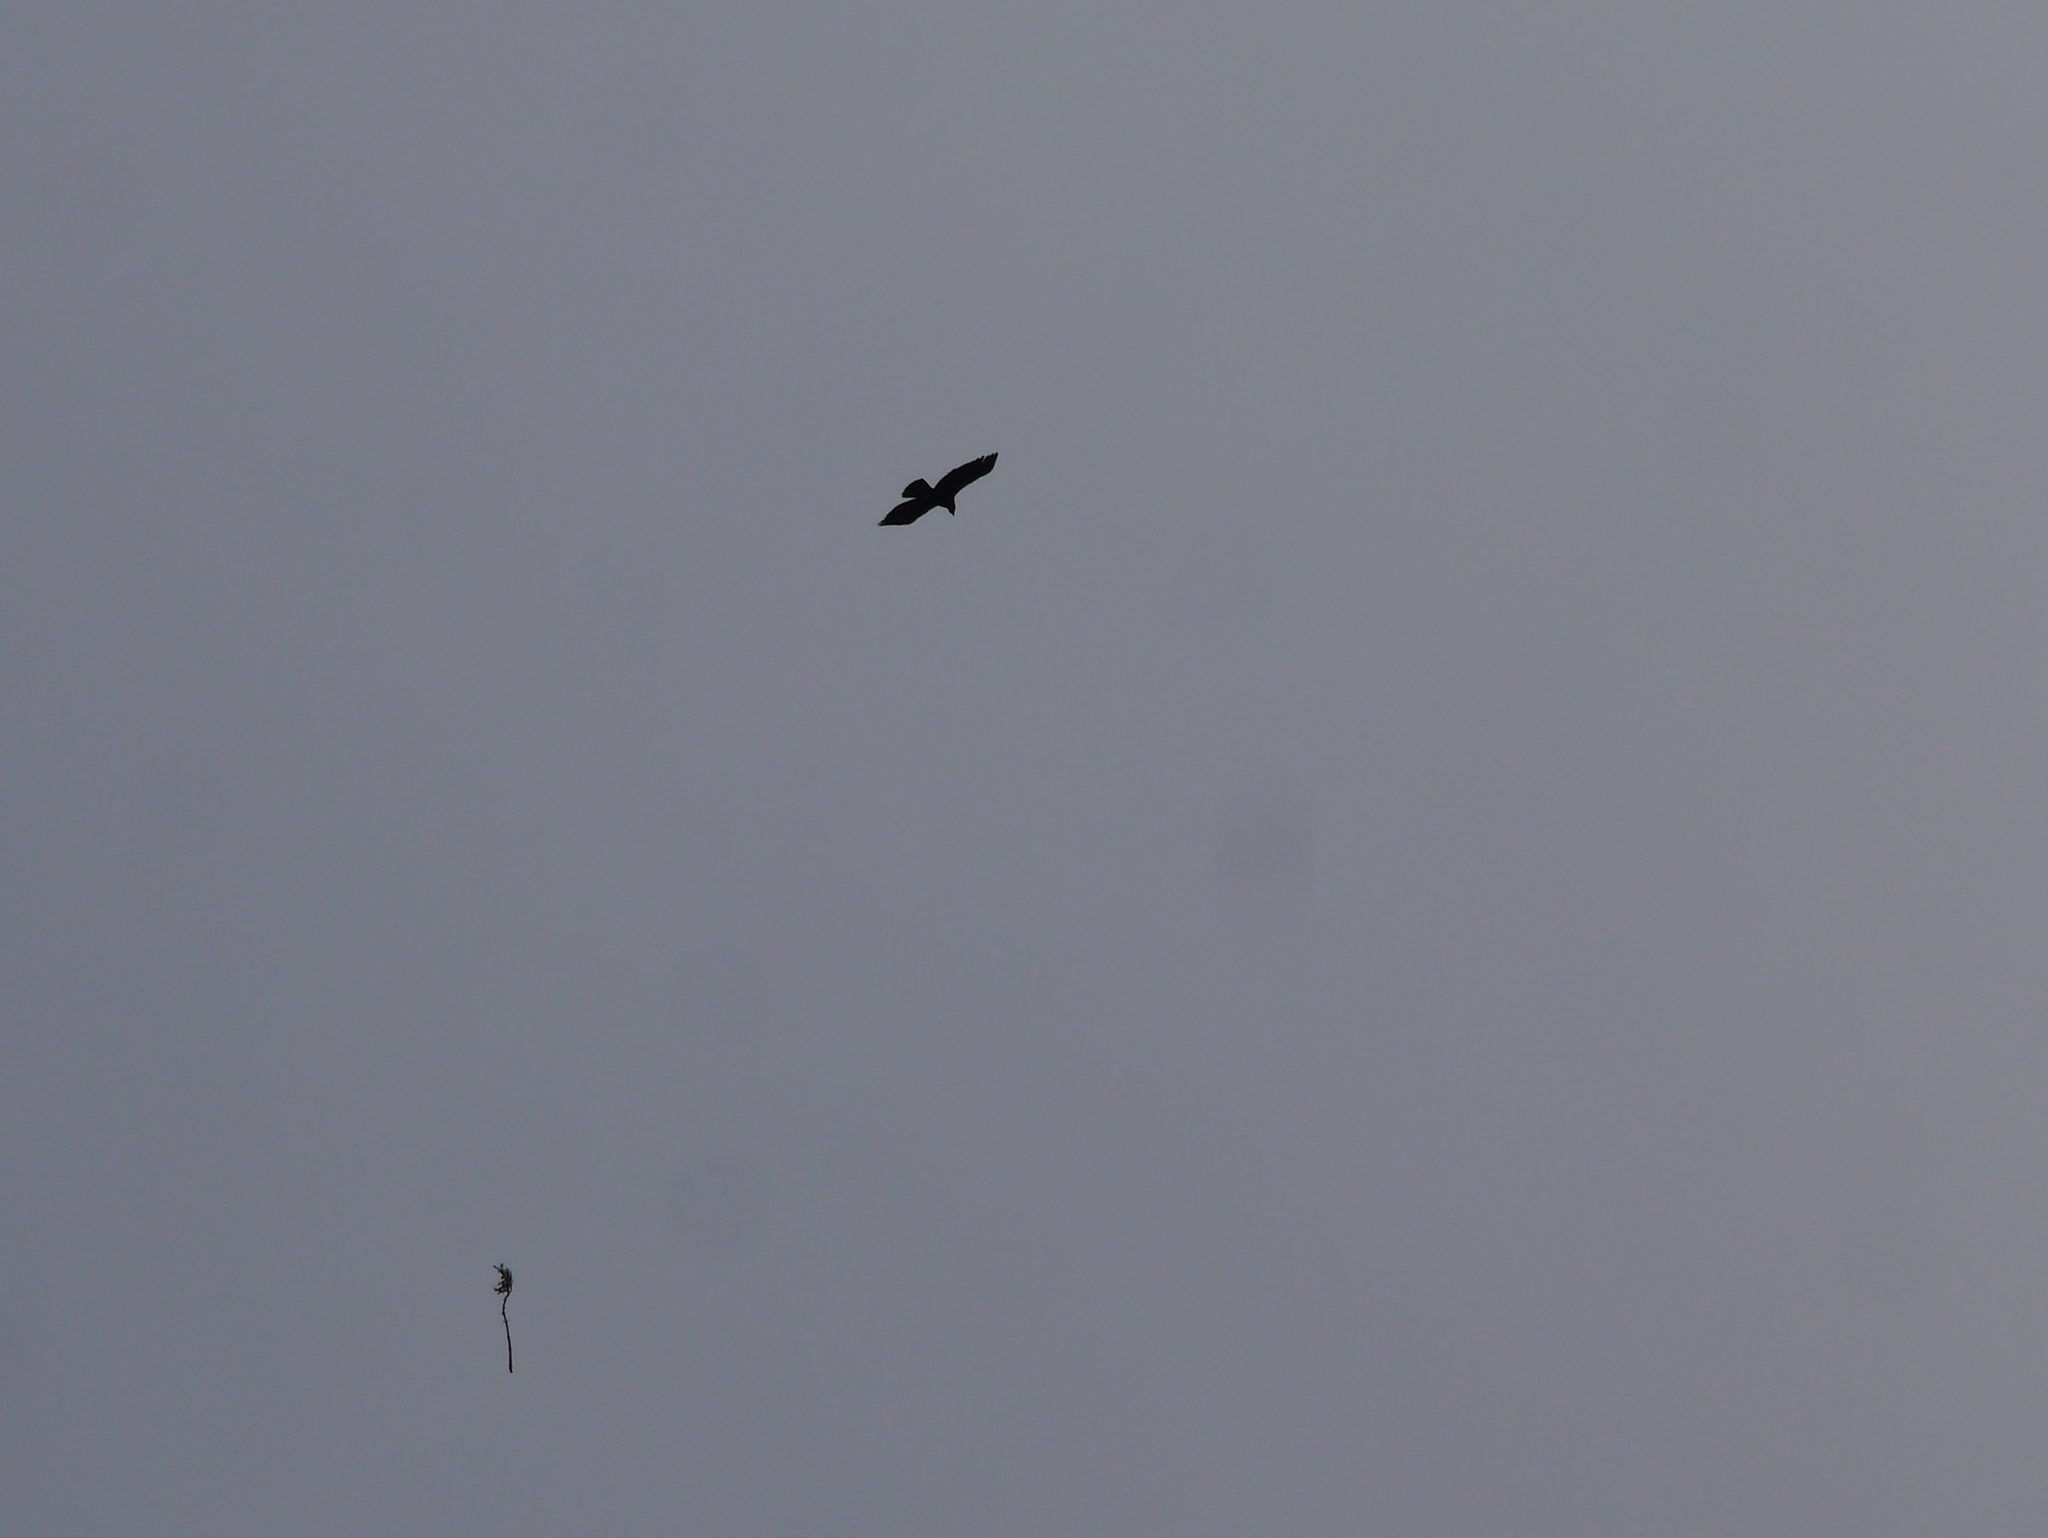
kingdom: Animalia
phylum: Chordata
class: Aves
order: Accipitriformes
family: Accipitridae
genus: Aquila
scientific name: Aquila chrysaetos
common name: Golden eagle
